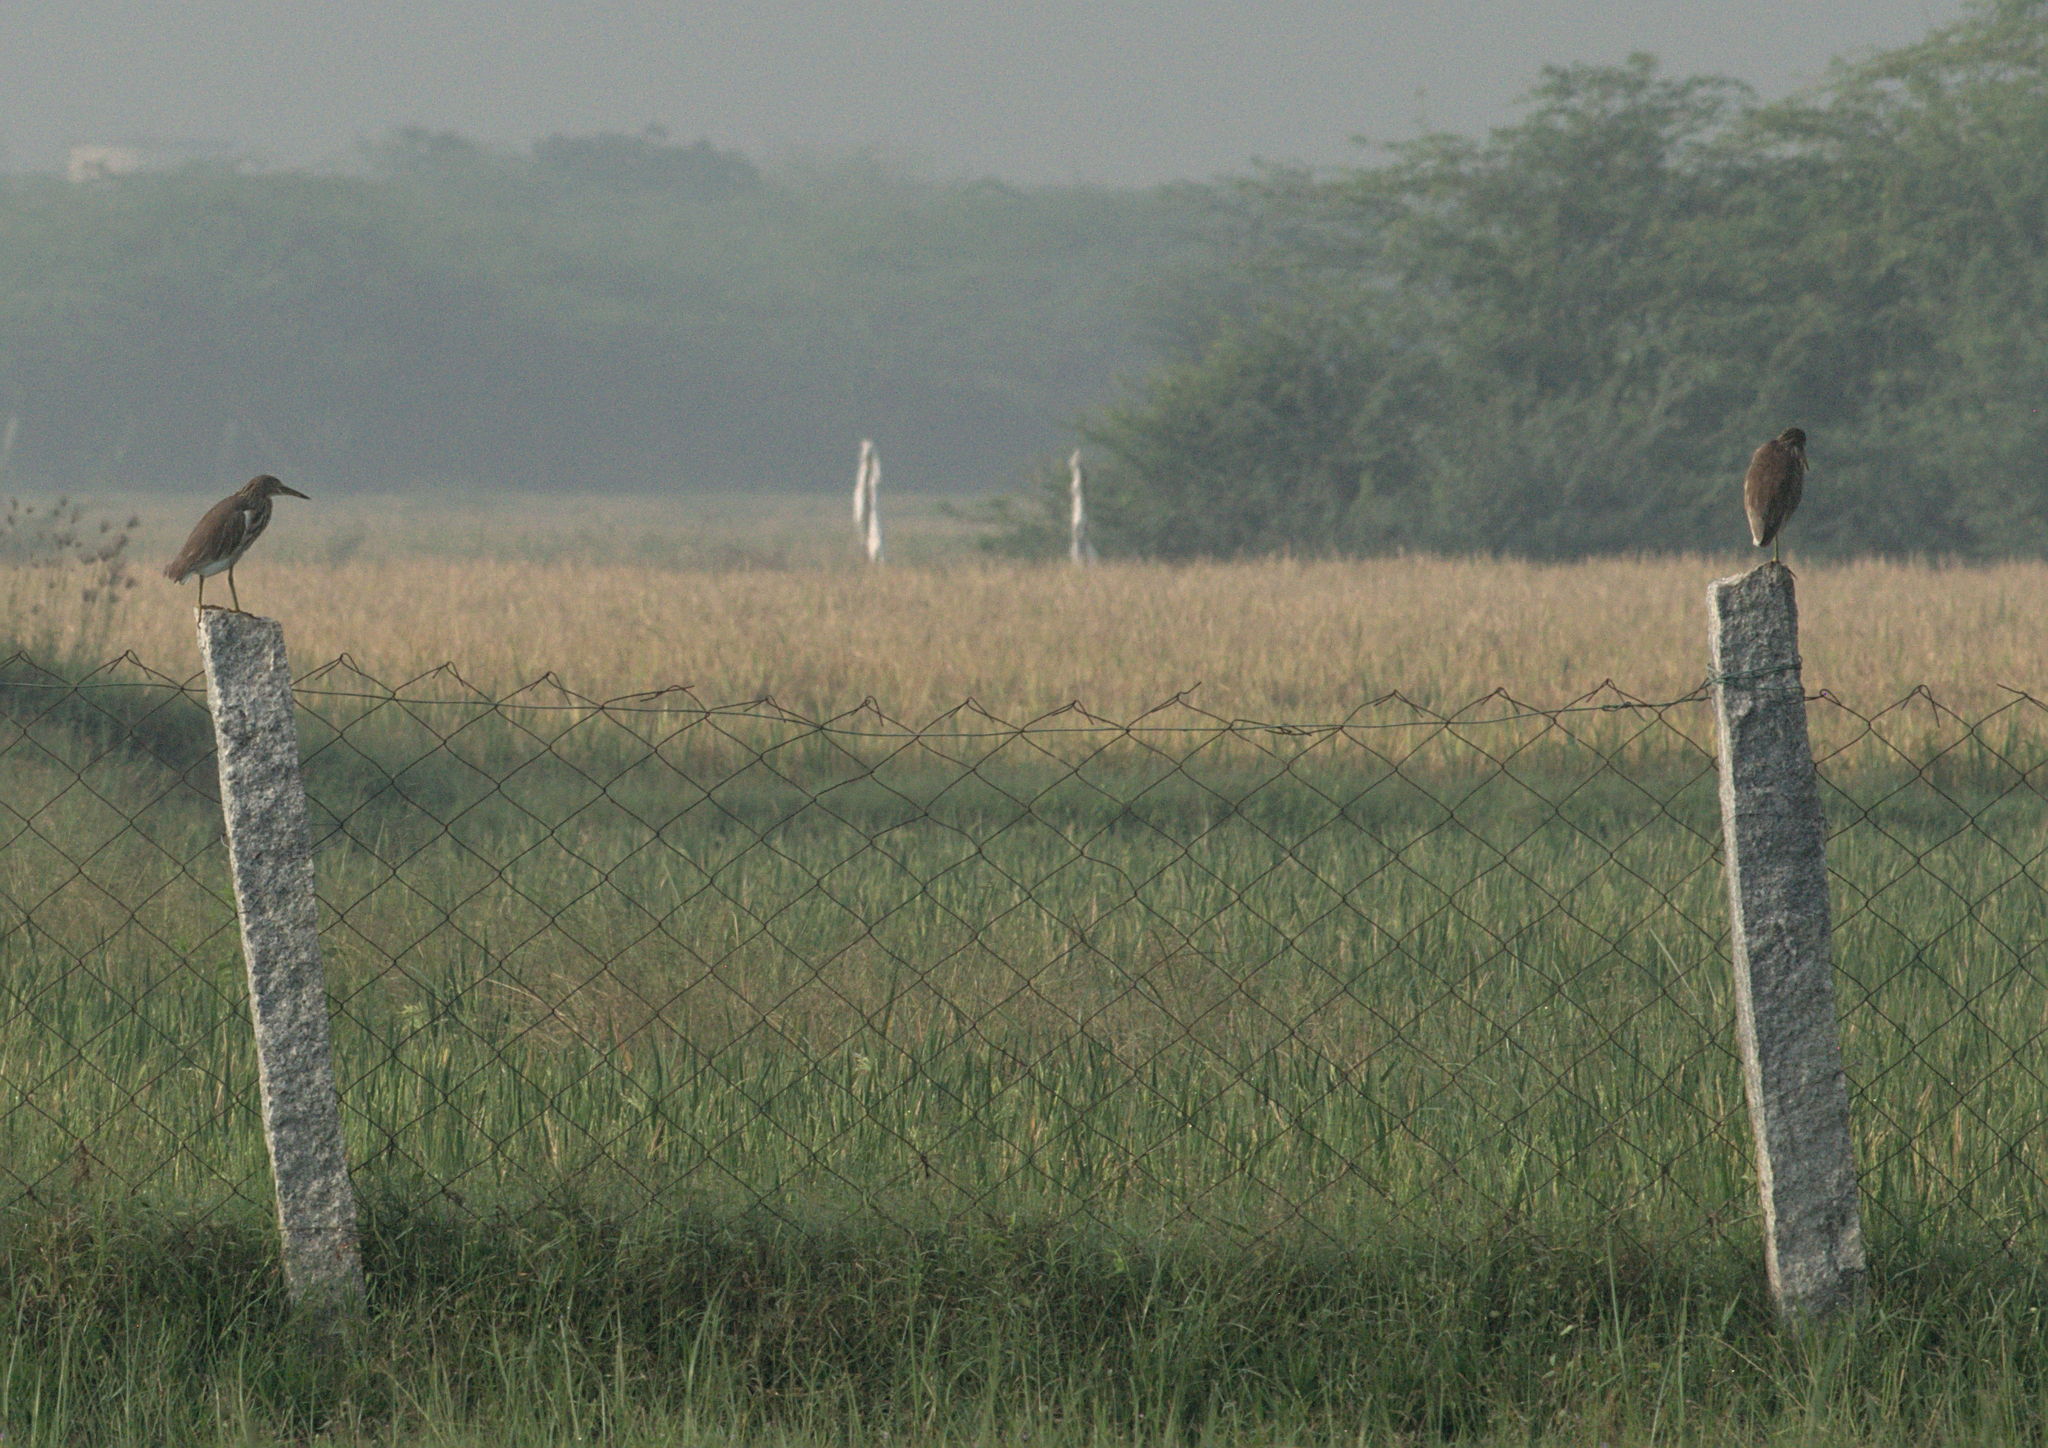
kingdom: Animalia
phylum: Chordata
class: Aves
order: Pelecaniformes
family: Ardeidae
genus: Ardeola
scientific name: Ardeola grayii
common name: Indian pond heron
